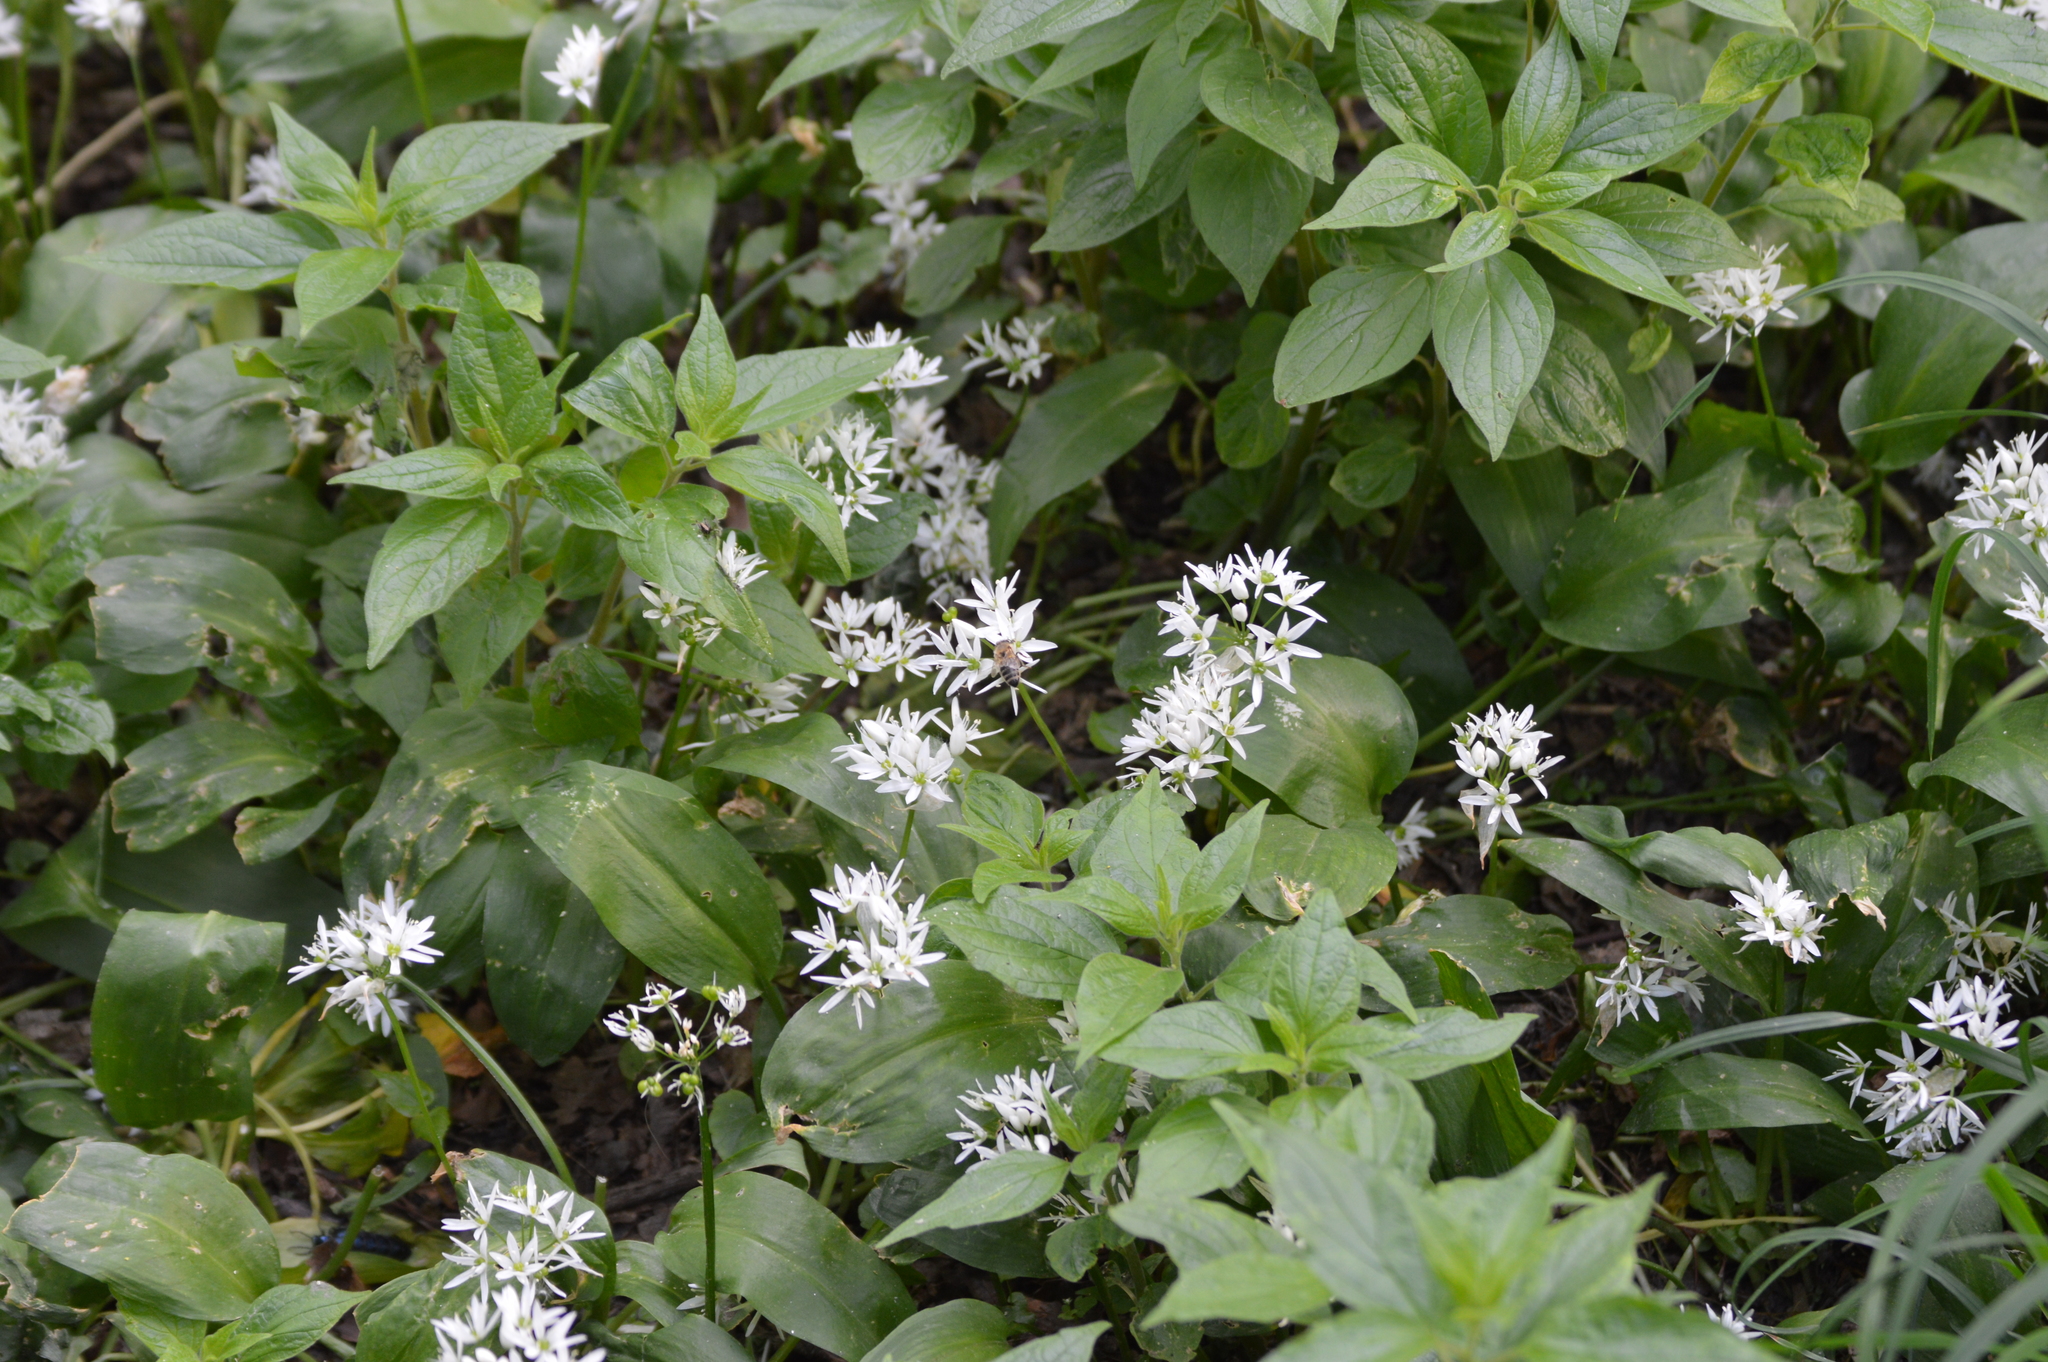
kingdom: Plantae
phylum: Tracheophyta
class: Liliopsida
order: Asparagales
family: Amaryllidaceae
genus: Allium
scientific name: Allium ursinum
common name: Ramsons
